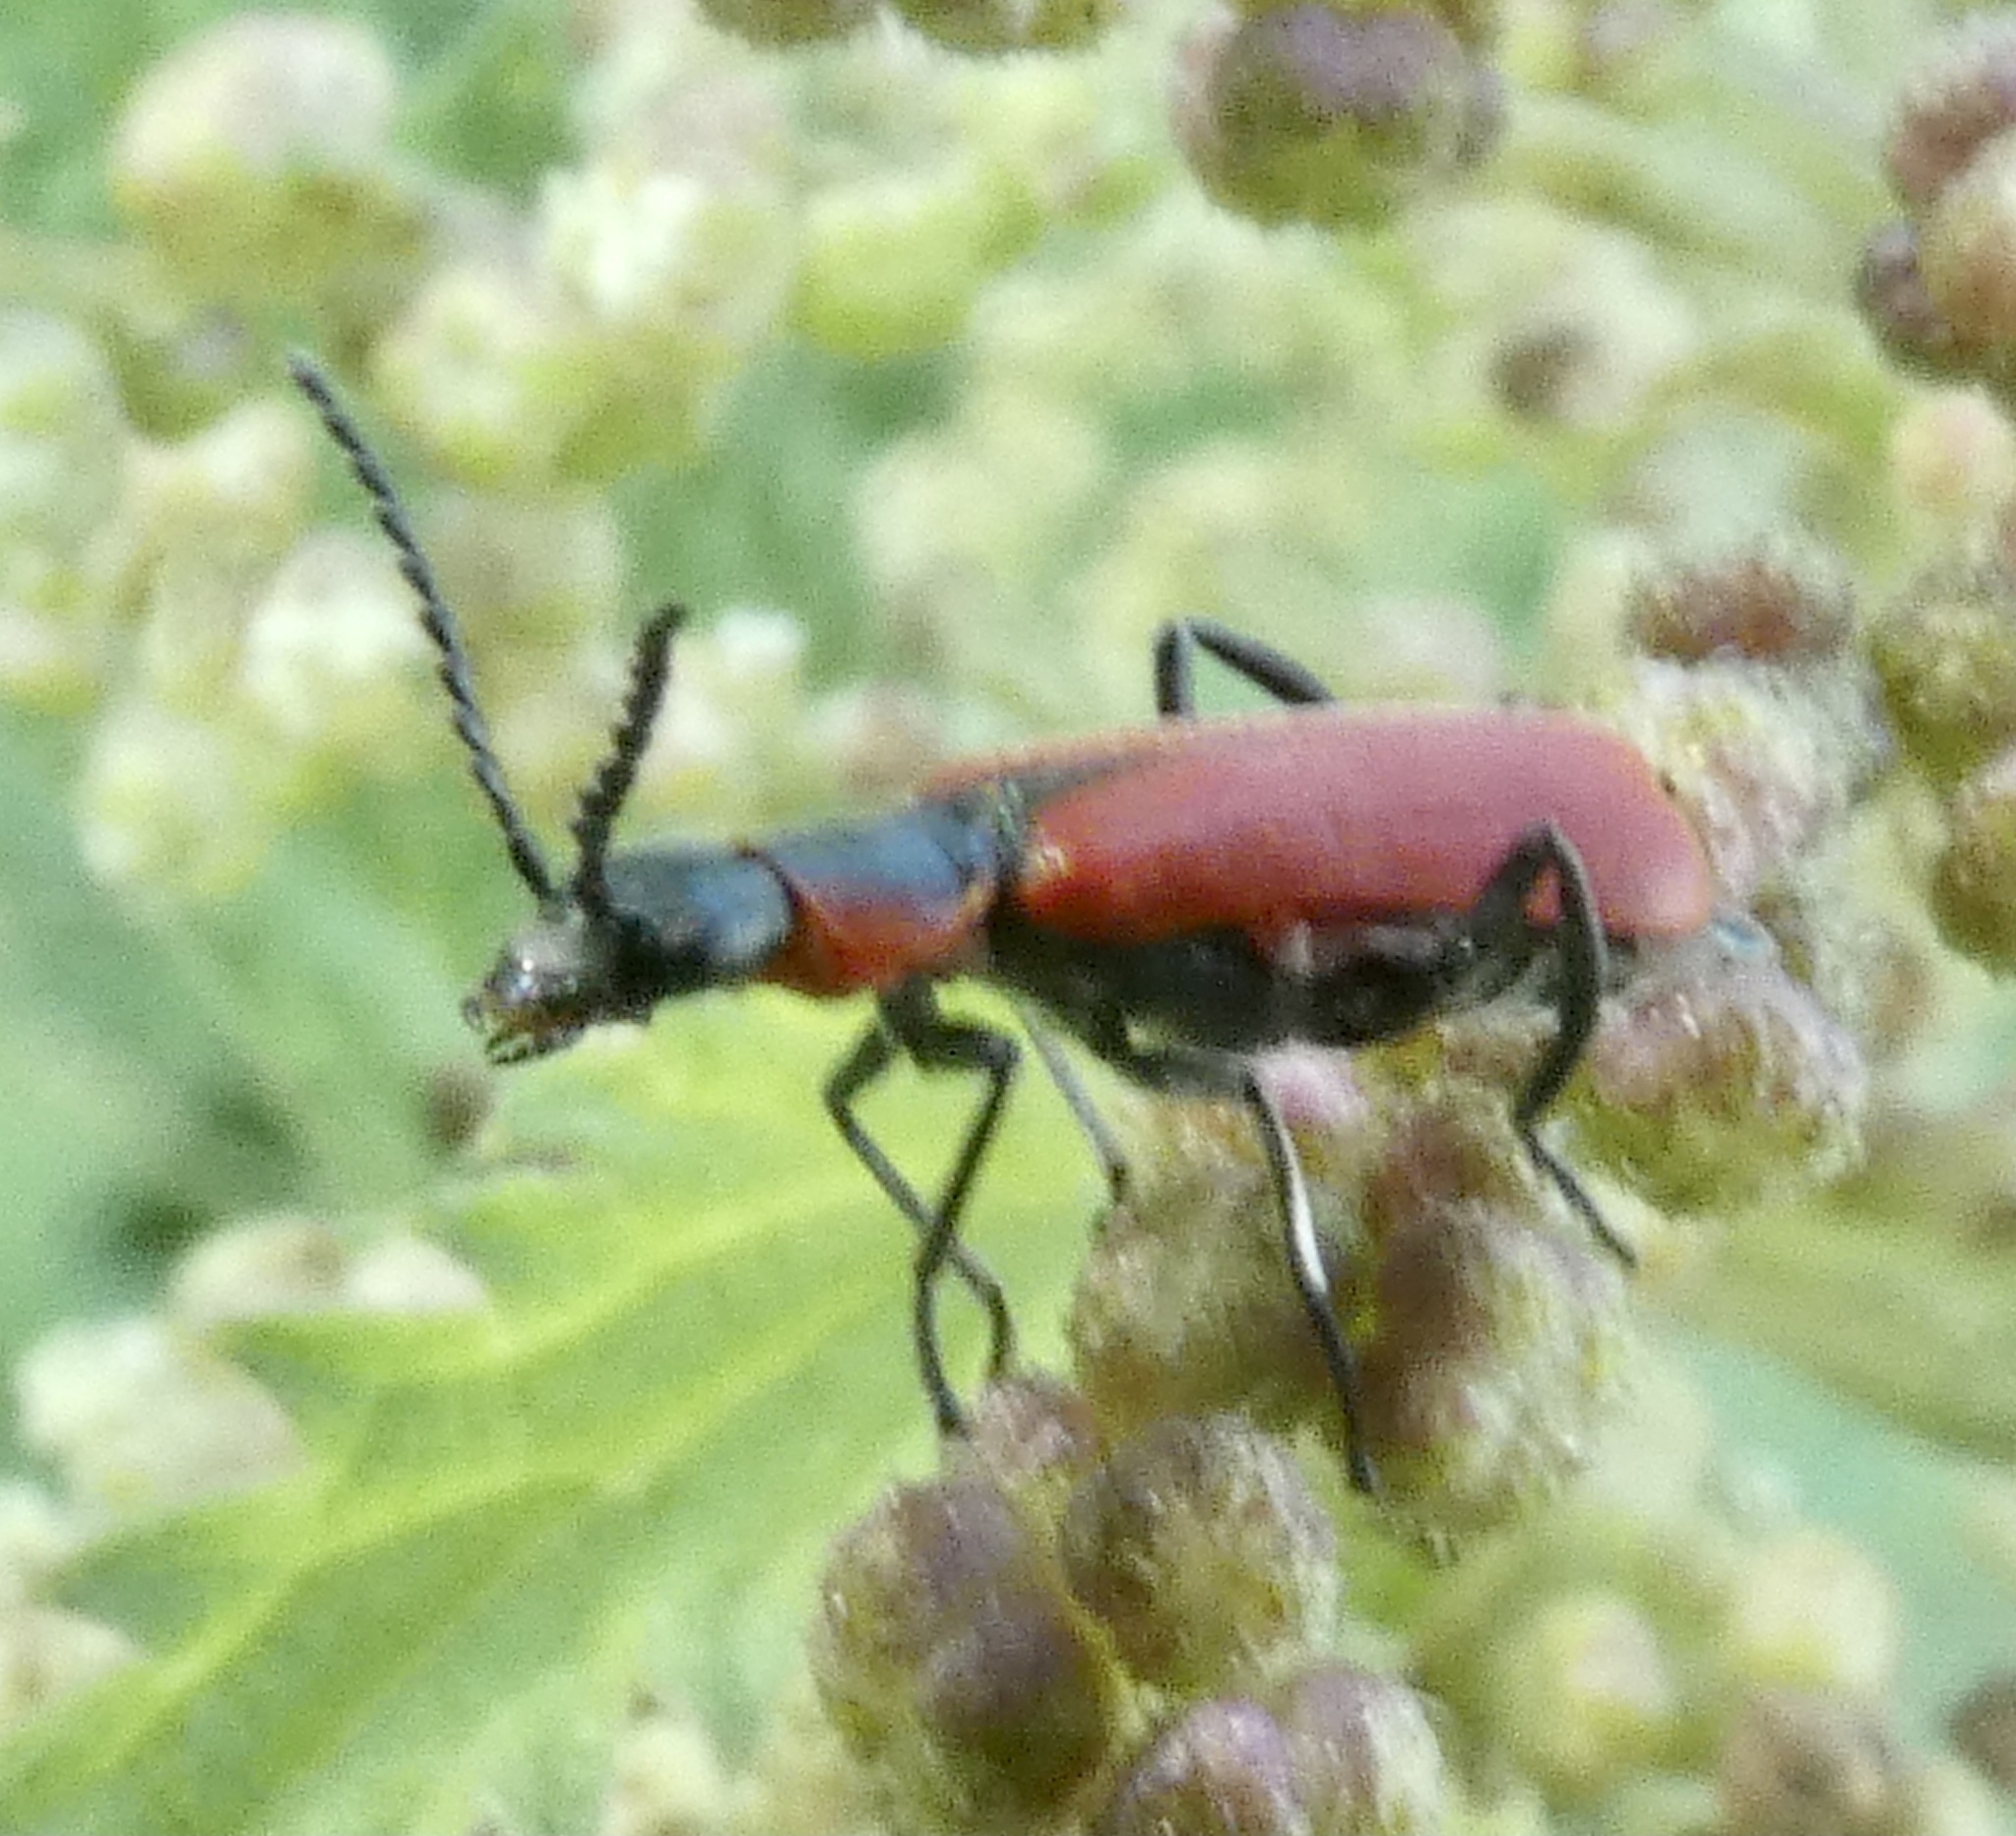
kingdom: Animalia
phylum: Arthropoda
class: Insecta
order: Coleoptera
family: Melyridae
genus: Anthocomus
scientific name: Anthocomus rufus
